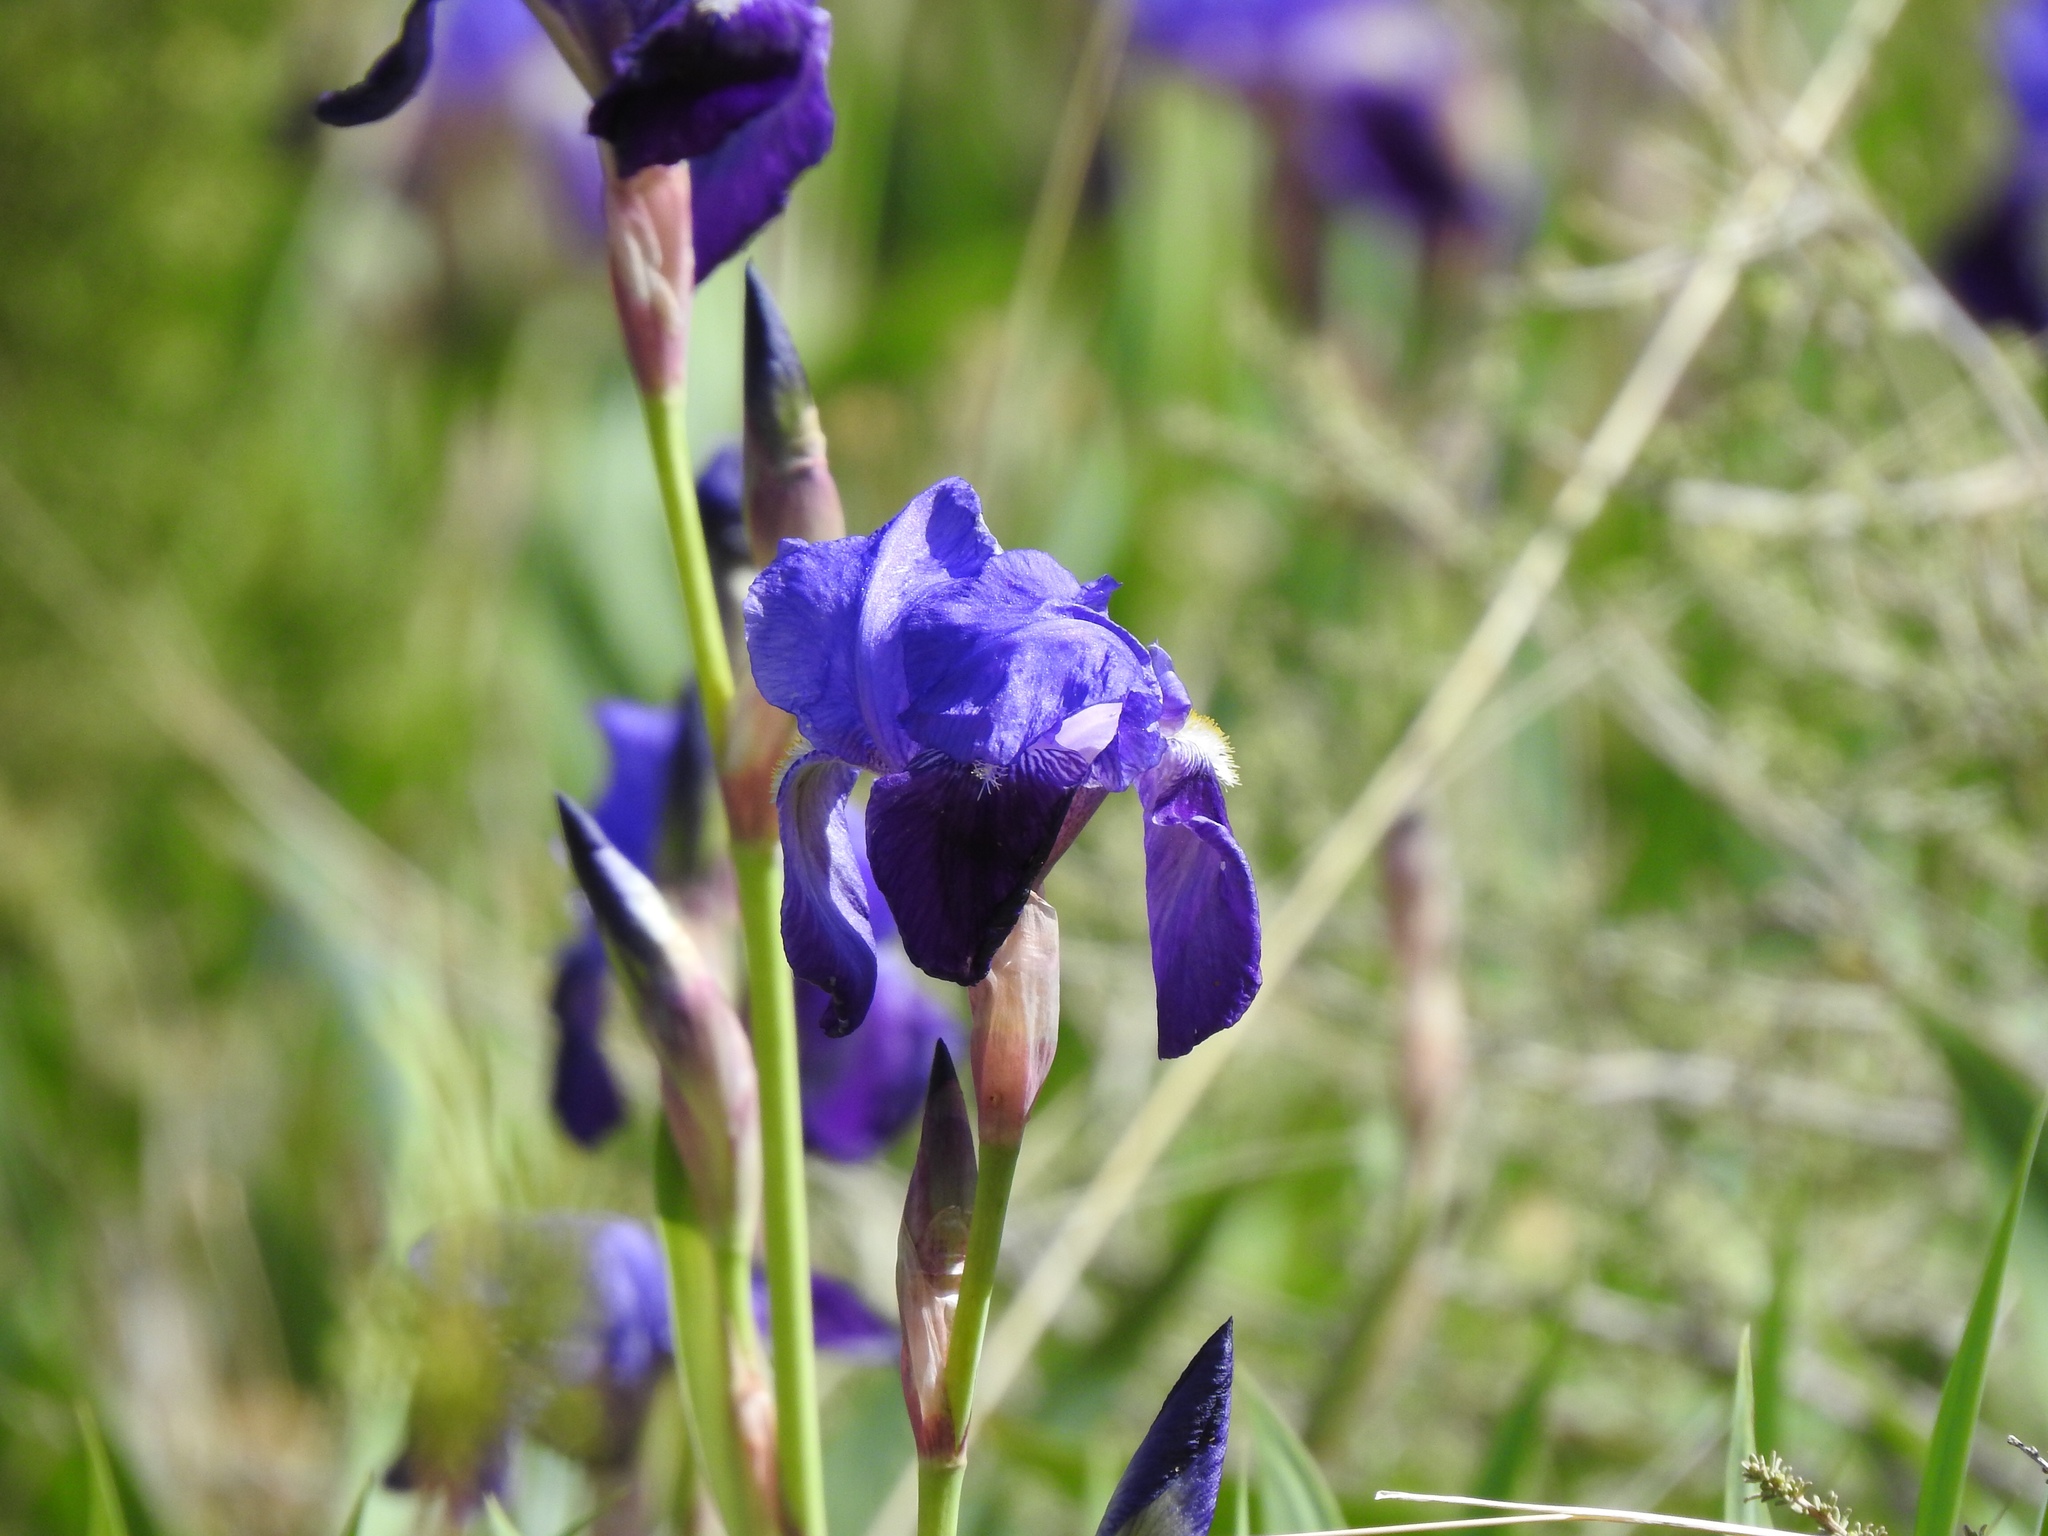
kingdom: Plantae
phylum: Tracheophyta
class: Liliopsida
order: Asparagales
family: Iridaceae
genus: Iris
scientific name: Iris germanica
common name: German iris
